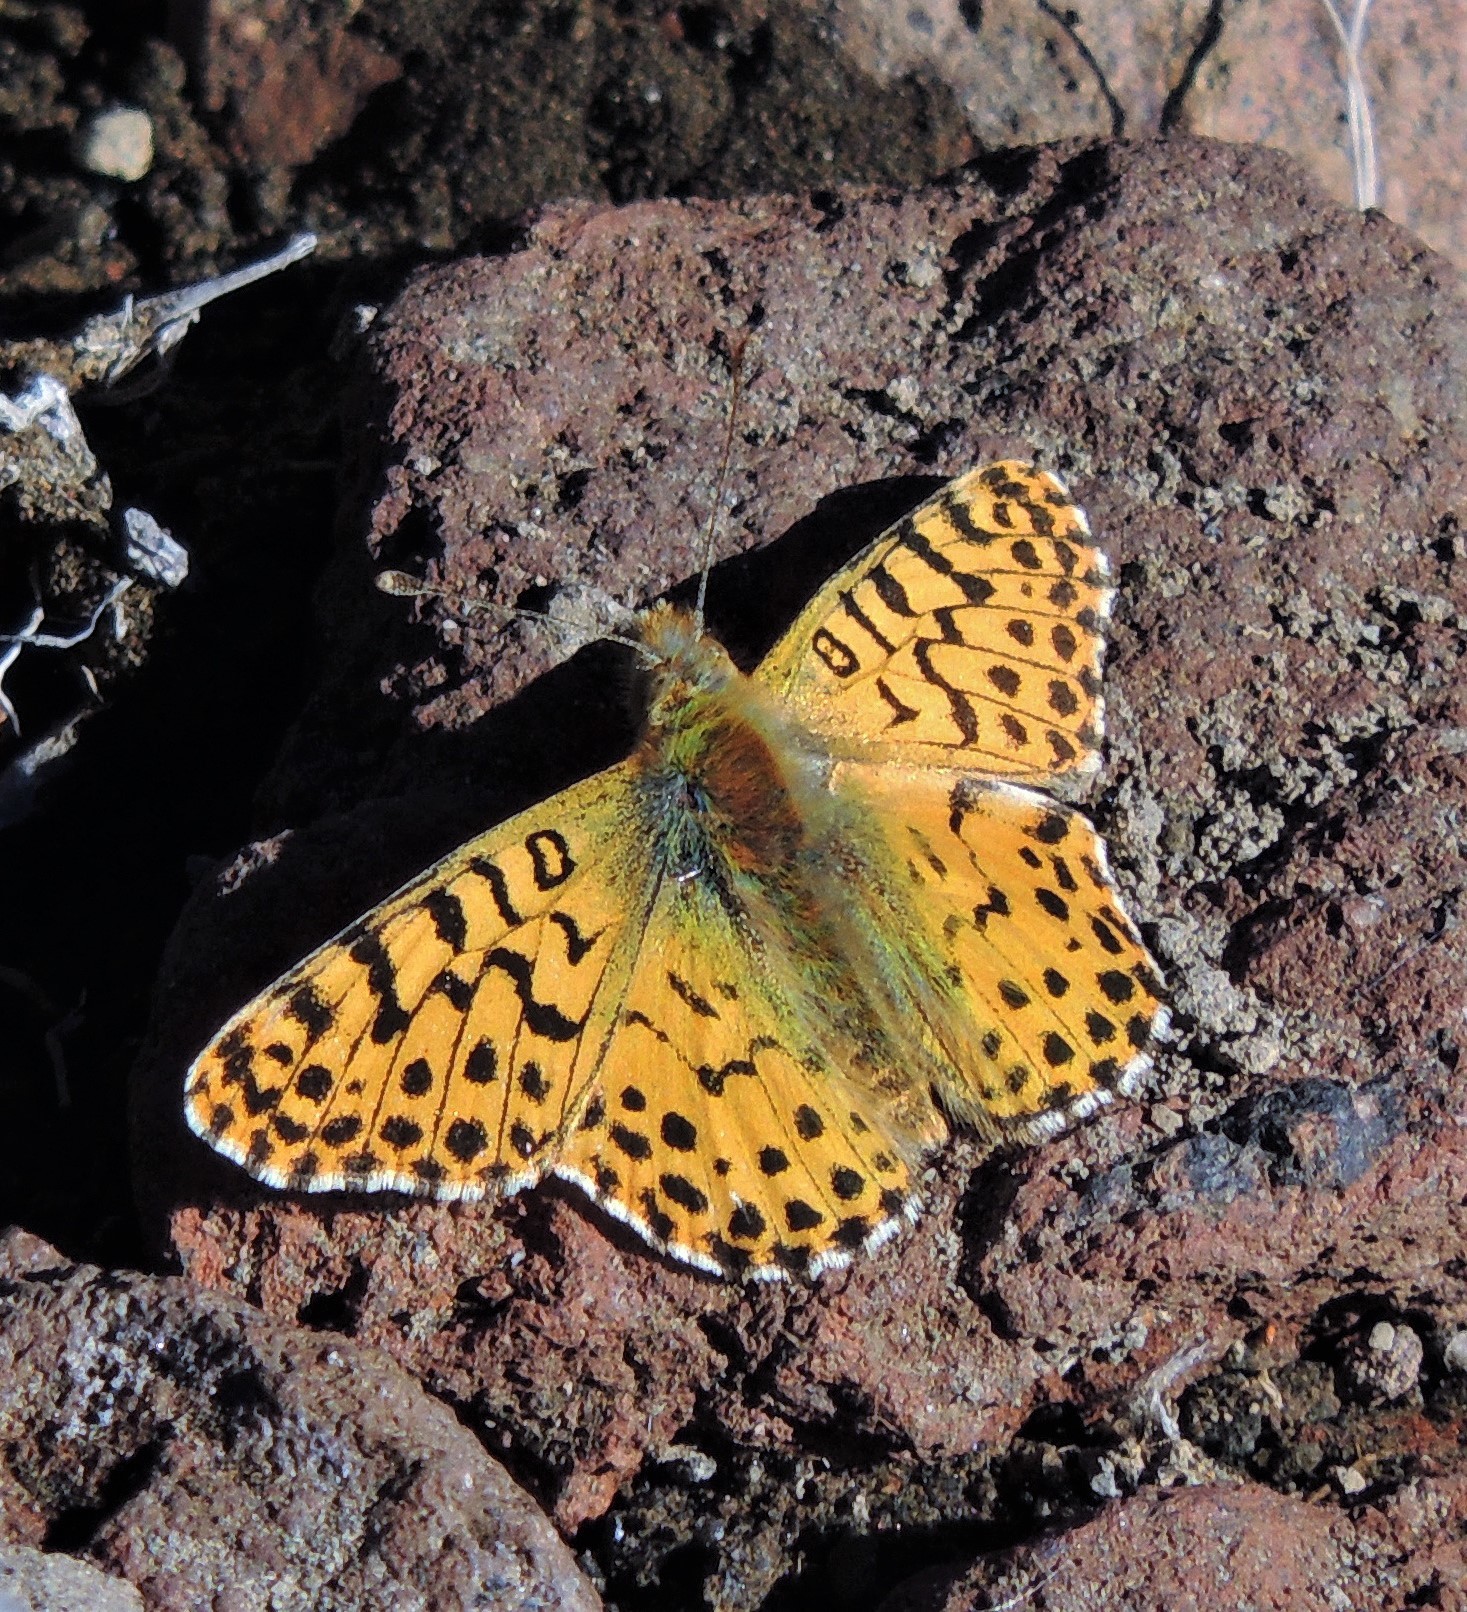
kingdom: Animalia
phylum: Arthropoda
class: Insecta
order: Lepidoptera
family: Nymphalidae
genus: Issoria
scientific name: Issoria Yramea lathonoides
